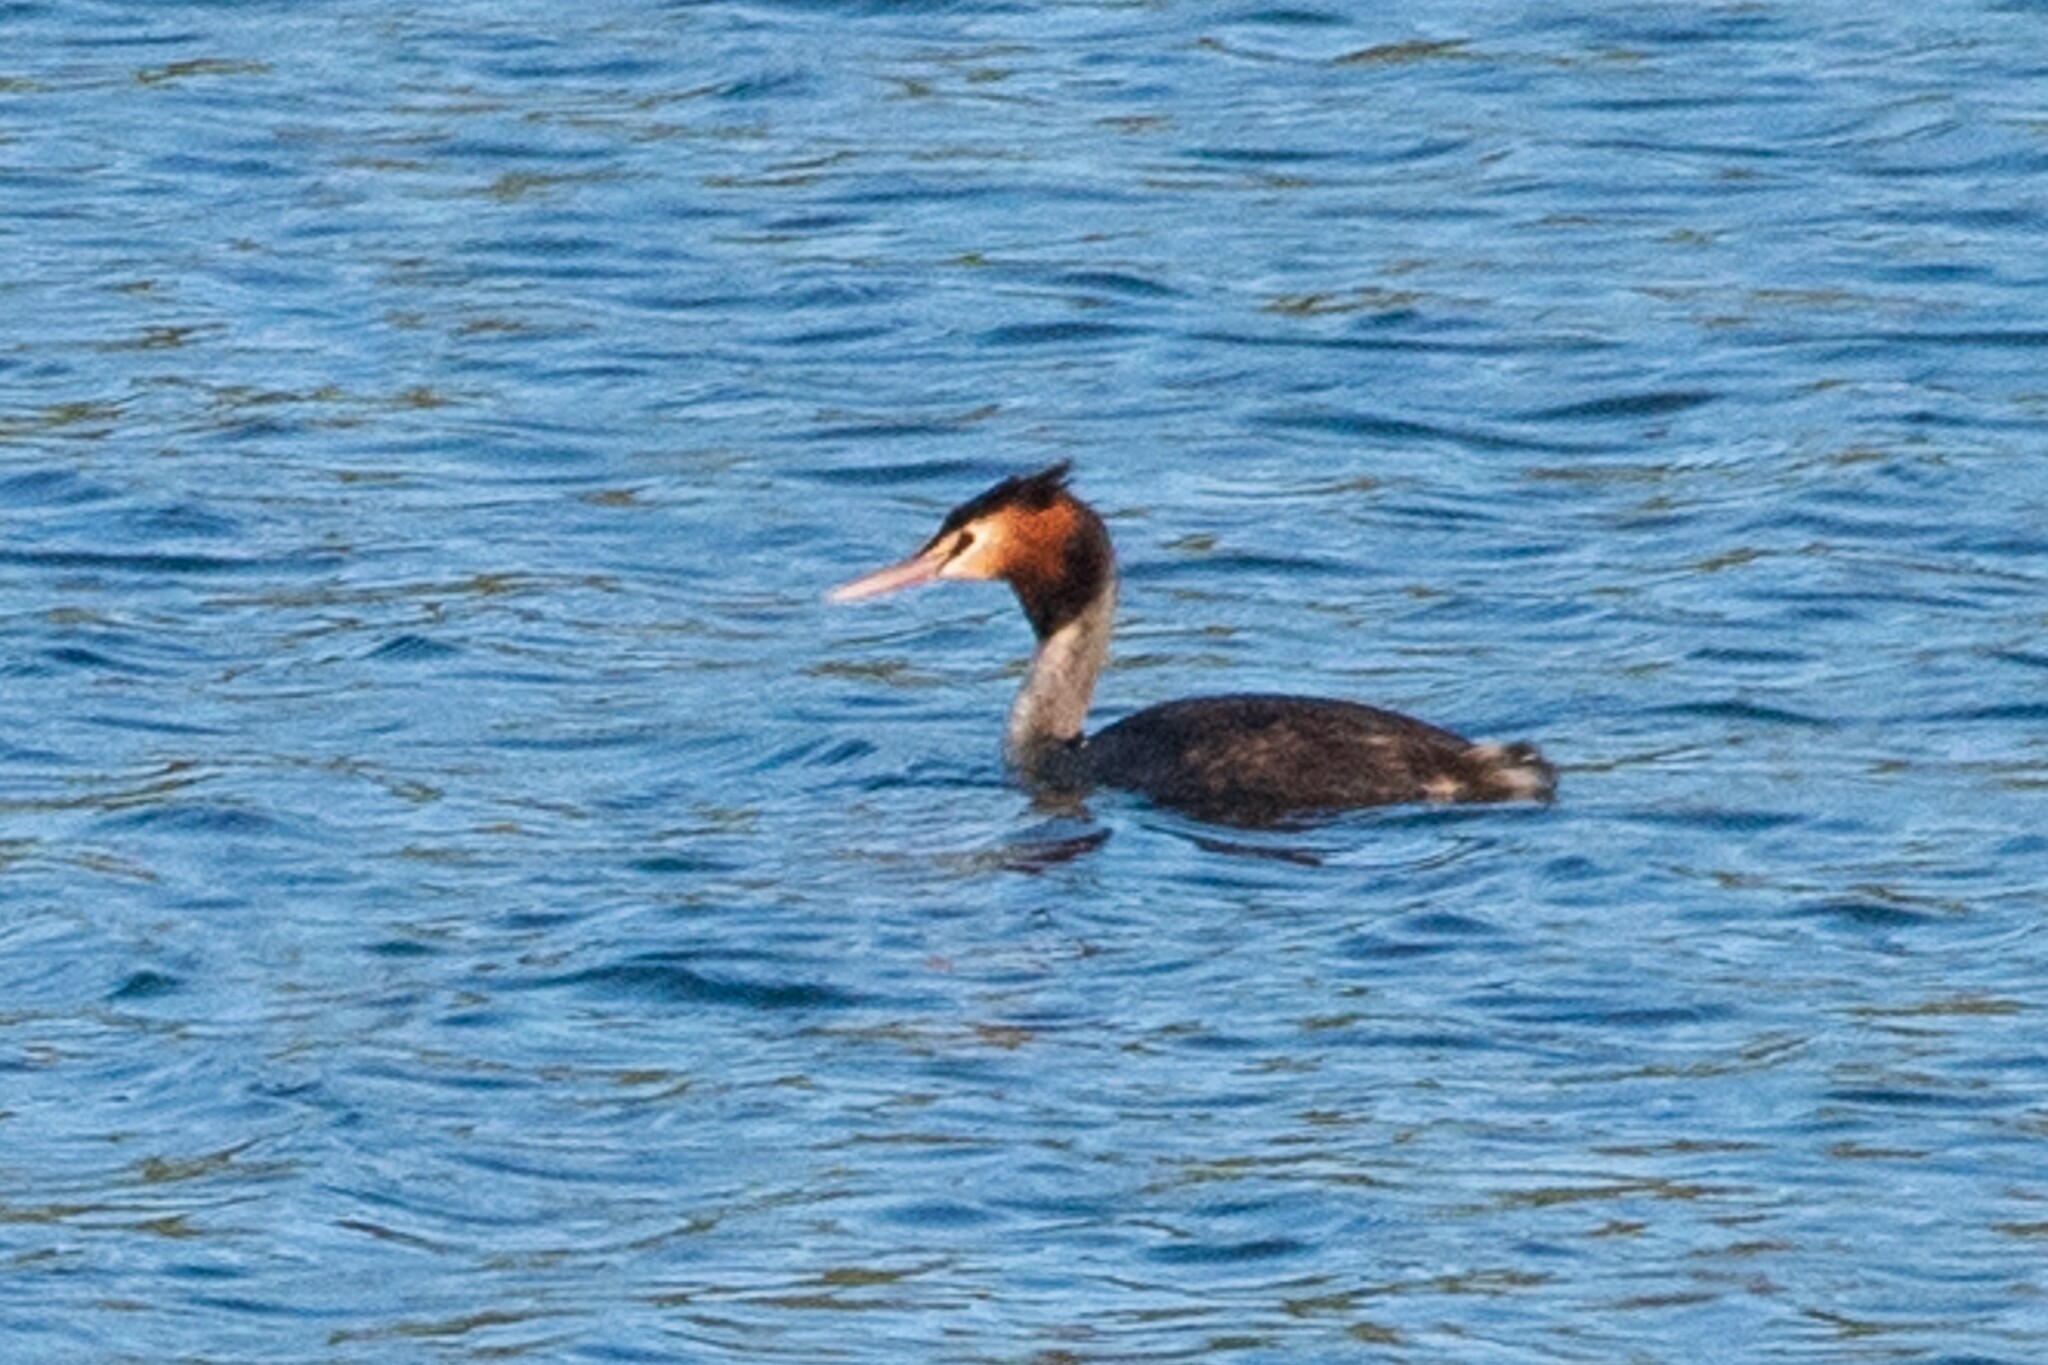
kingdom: Animalia
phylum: Chordata
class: Aves
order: Podicipediformes
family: Podicipedidae
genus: Podiceps
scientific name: Podiceps cristatus
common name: Great crested grebe
